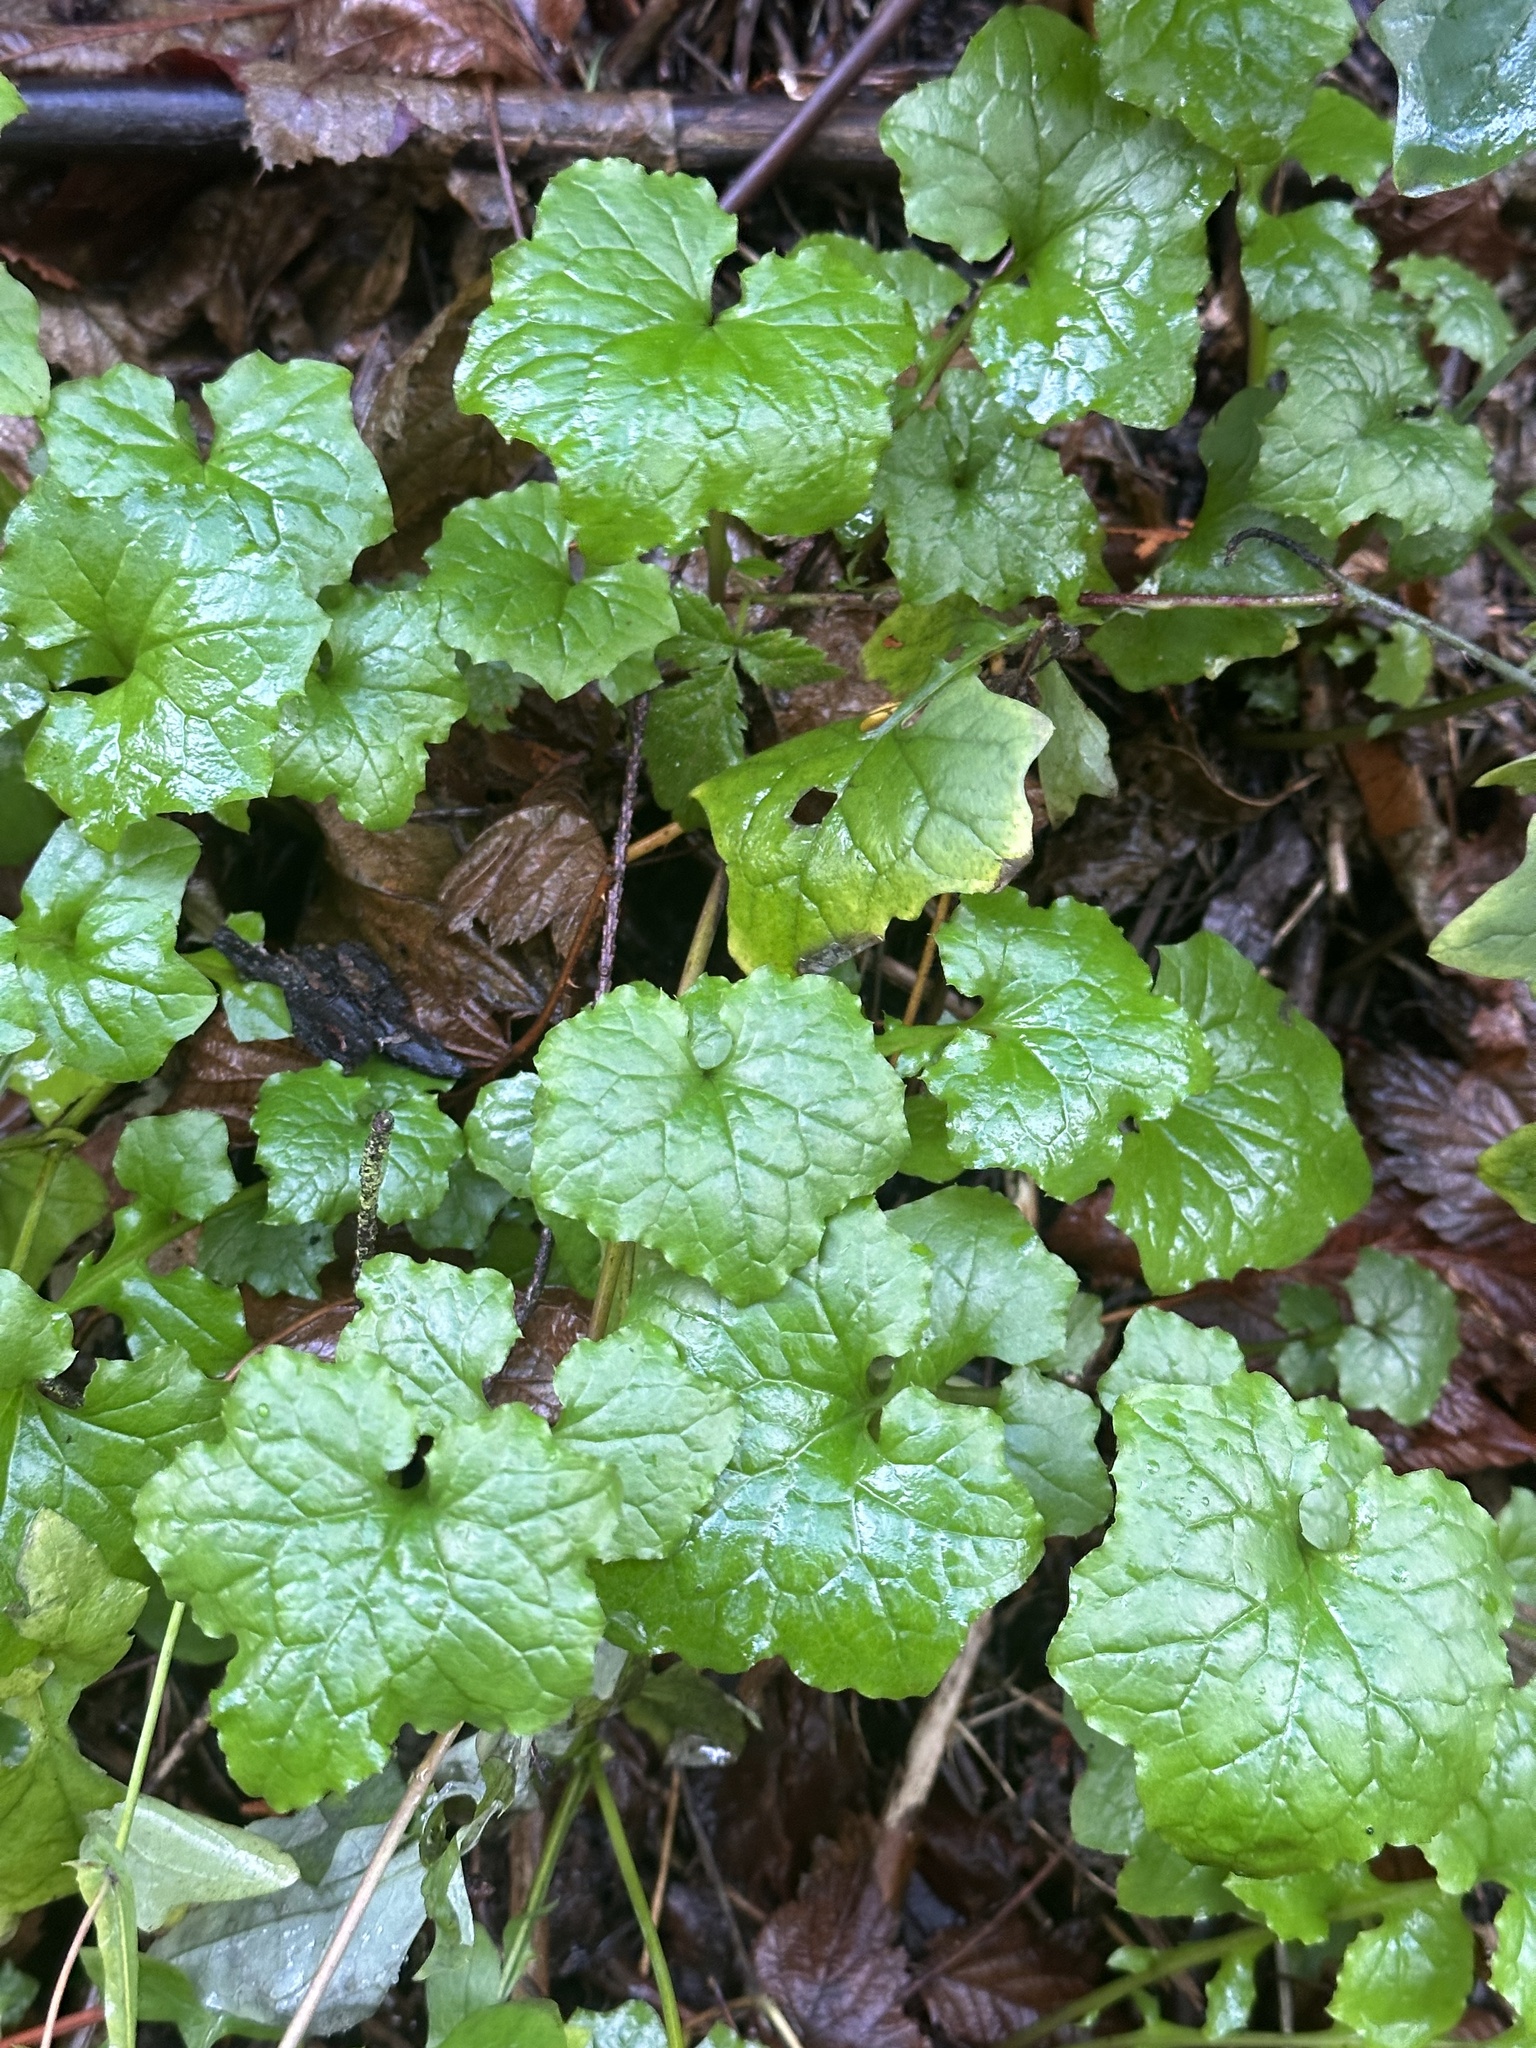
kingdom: Plantae
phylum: Tracheophyta
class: Magnoliopsida
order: Asterales
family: Asteraceae
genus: Mycelis
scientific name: Mycelis muralis
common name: Wall lettuce
